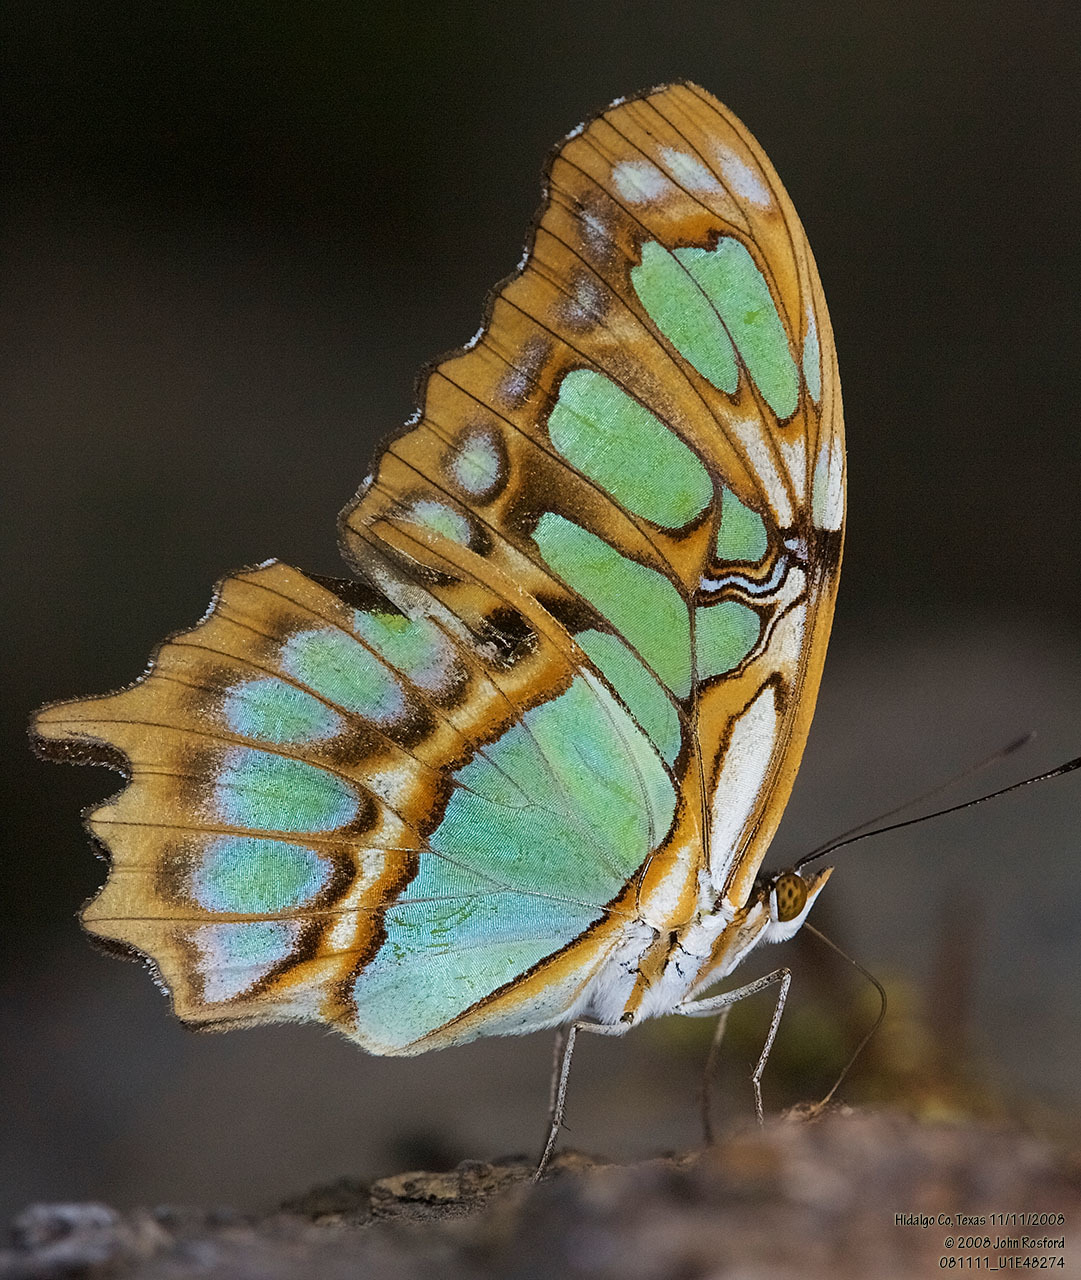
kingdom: Animalia
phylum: Arthropoda
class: Insecta
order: Lepidoptera
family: Nymphalidae
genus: Siproeta
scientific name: Siproeta stelenes
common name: Malachite
